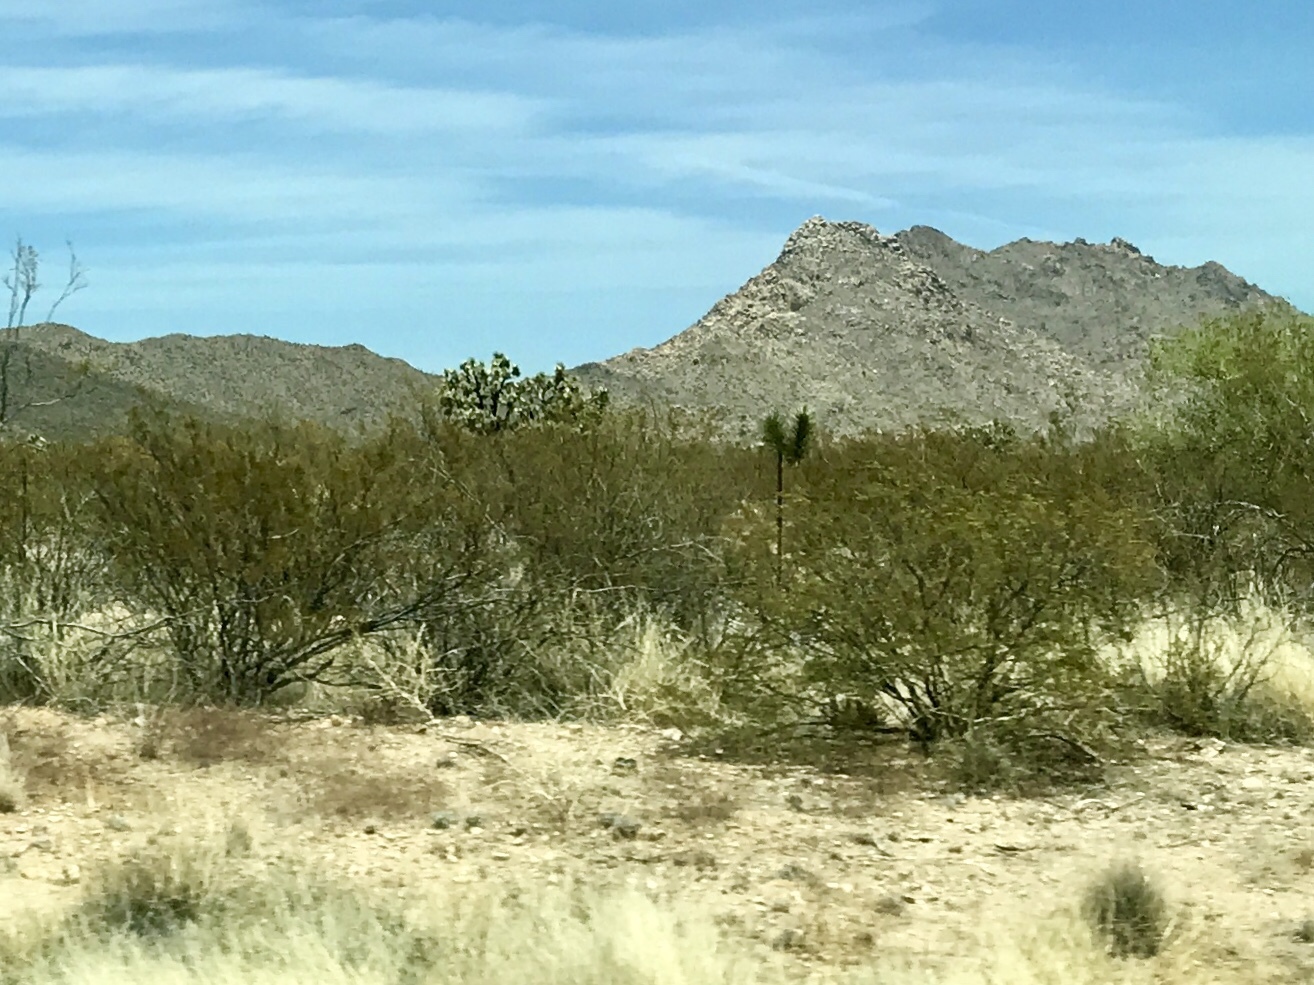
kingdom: Plantae
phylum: Tracheophyta
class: Magnoliopsida
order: Zygophyllales
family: Zygophyllaceae
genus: Larrea
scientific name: Larrea tridentata
